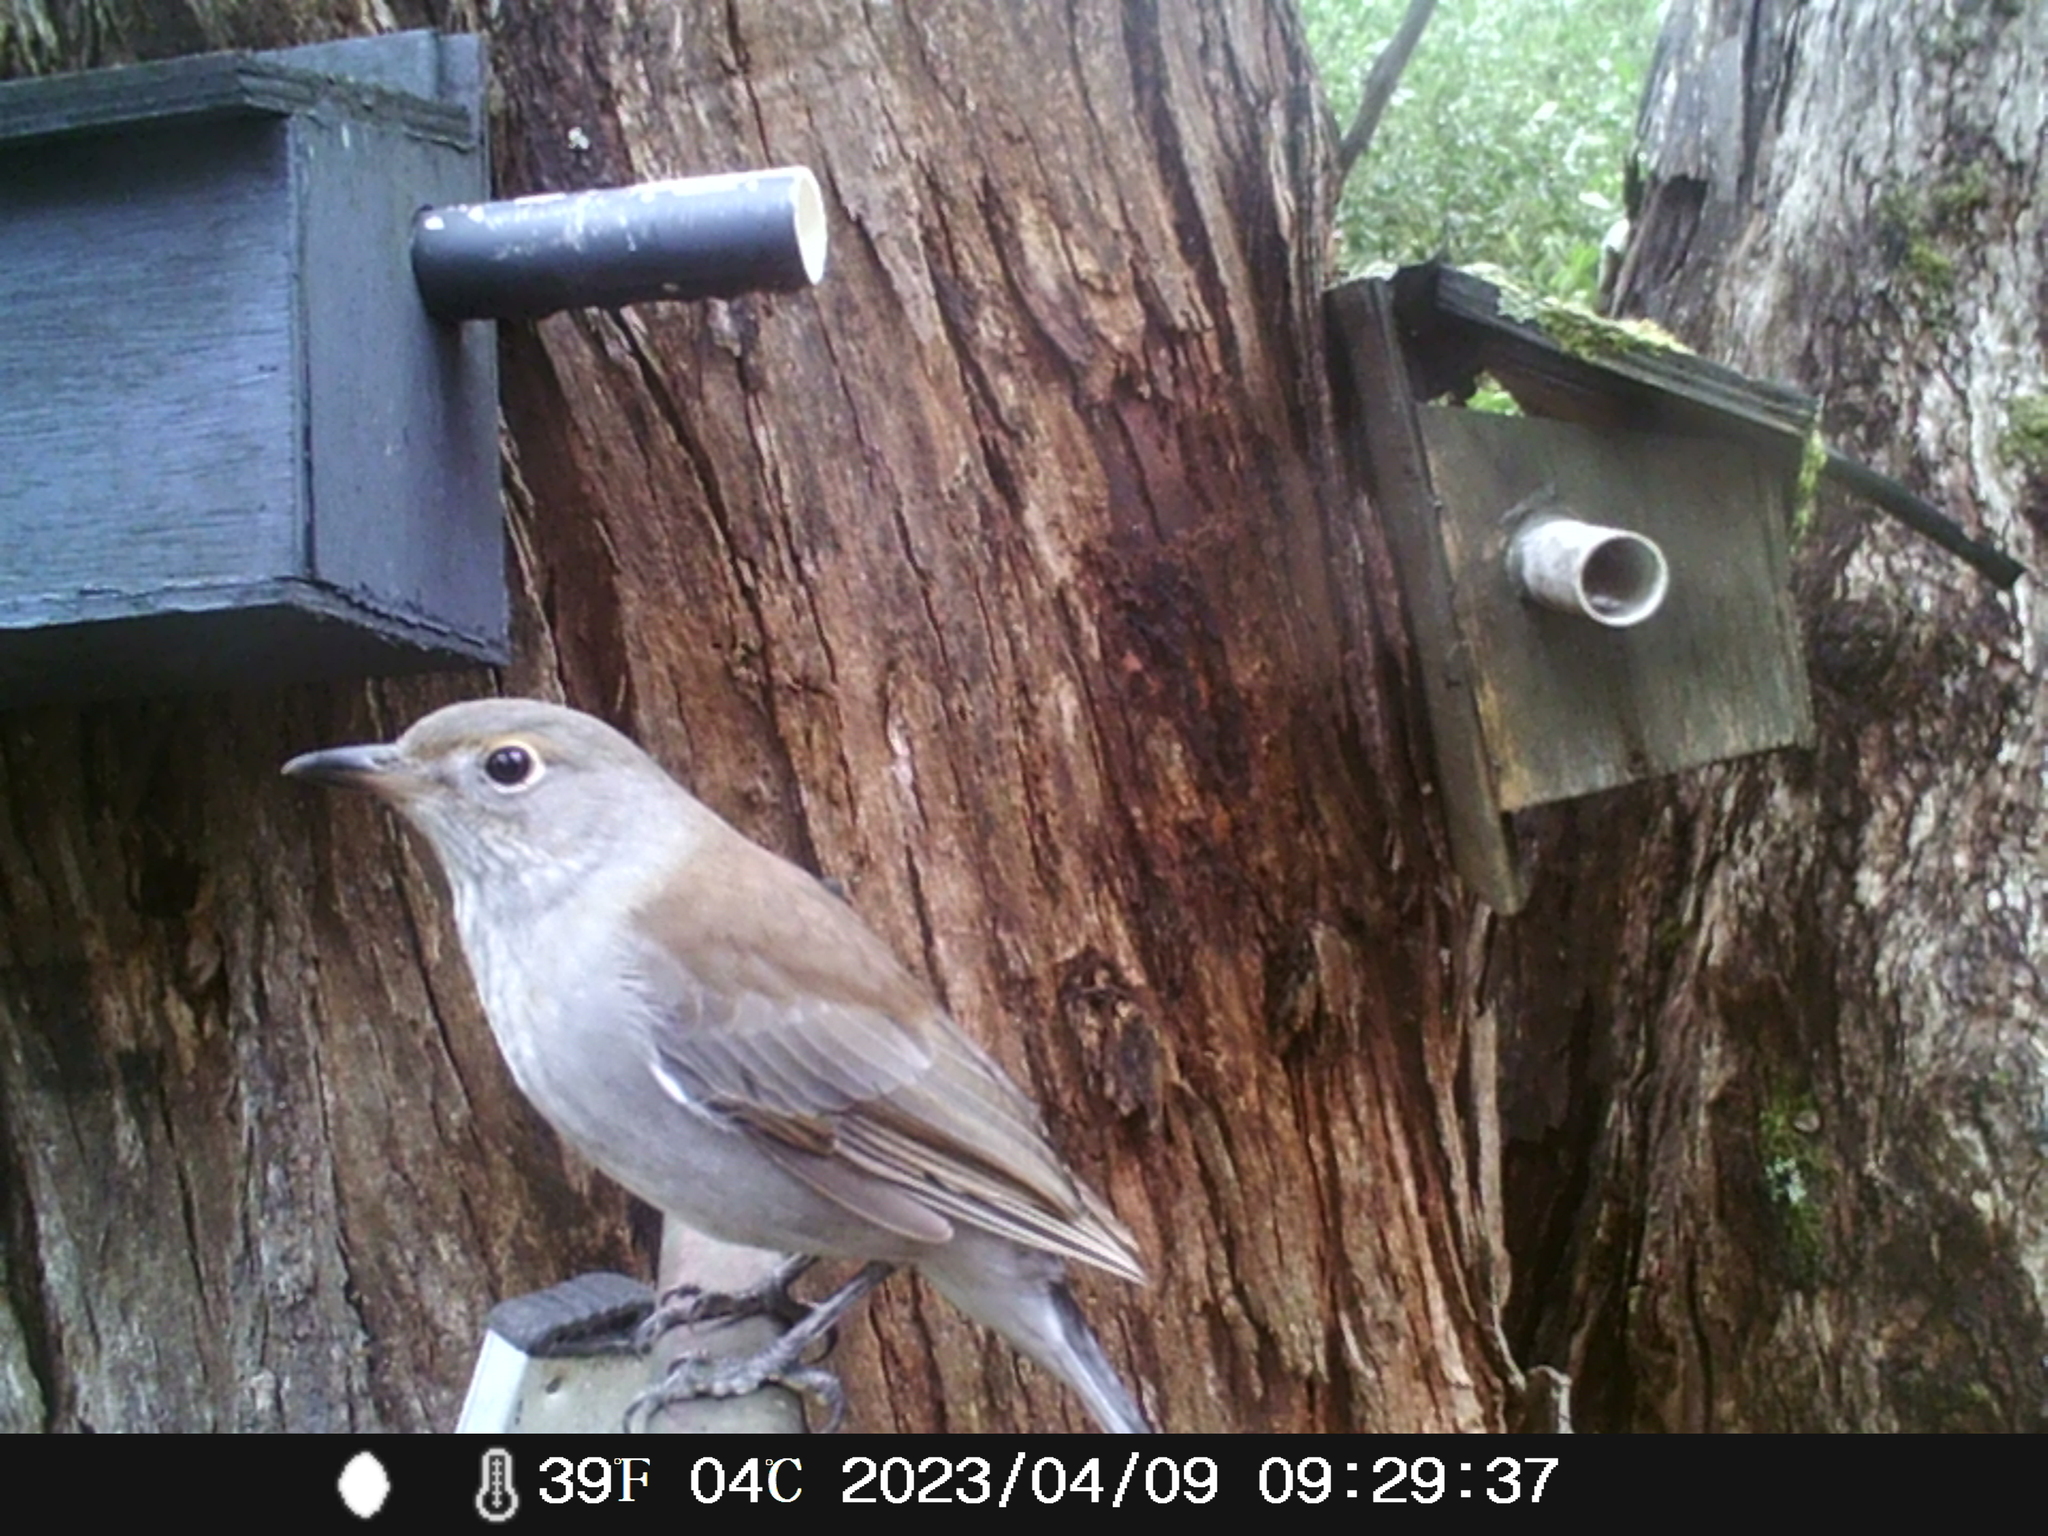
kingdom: Animalia
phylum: Chordata
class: Aves
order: Passeriformes
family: Pachycephalidae
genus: Colluricincla
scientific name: Colluricincla harmonica
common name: Grey shrikethrush
